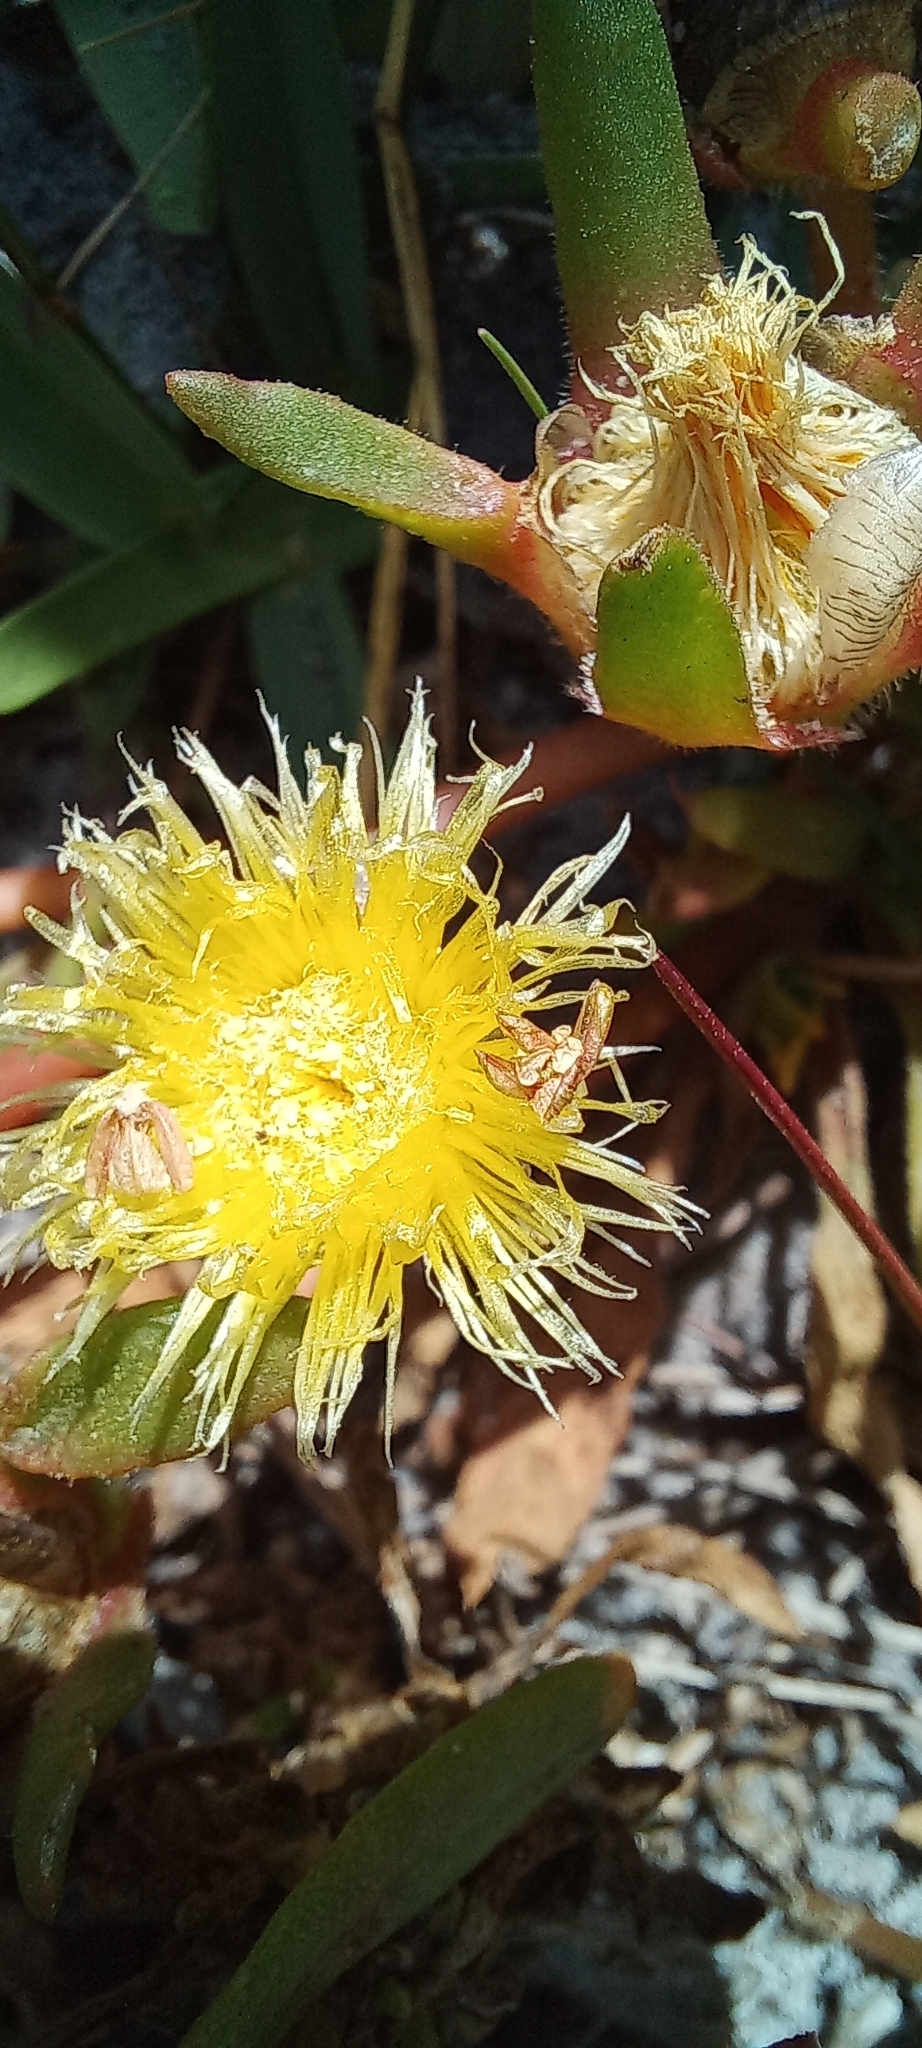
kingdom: Plantae
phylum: Tracheophyta
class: Magnoliopsida
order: Caryophyllales
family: Aizoaceae
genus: Carpanthea
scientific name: Carpanthea pomeridiana
